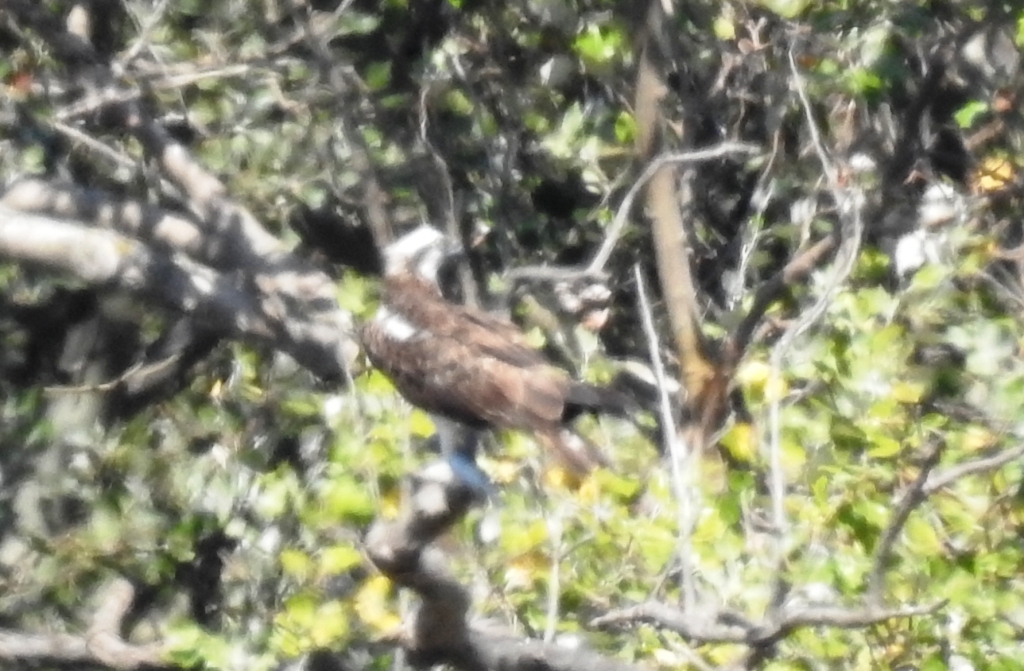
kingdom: Animalia
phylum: Chordata
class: Aves
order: Accipitriformes
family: Pandionidae
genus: Pandion
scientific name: Pandion haliaetus
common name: Osprey
